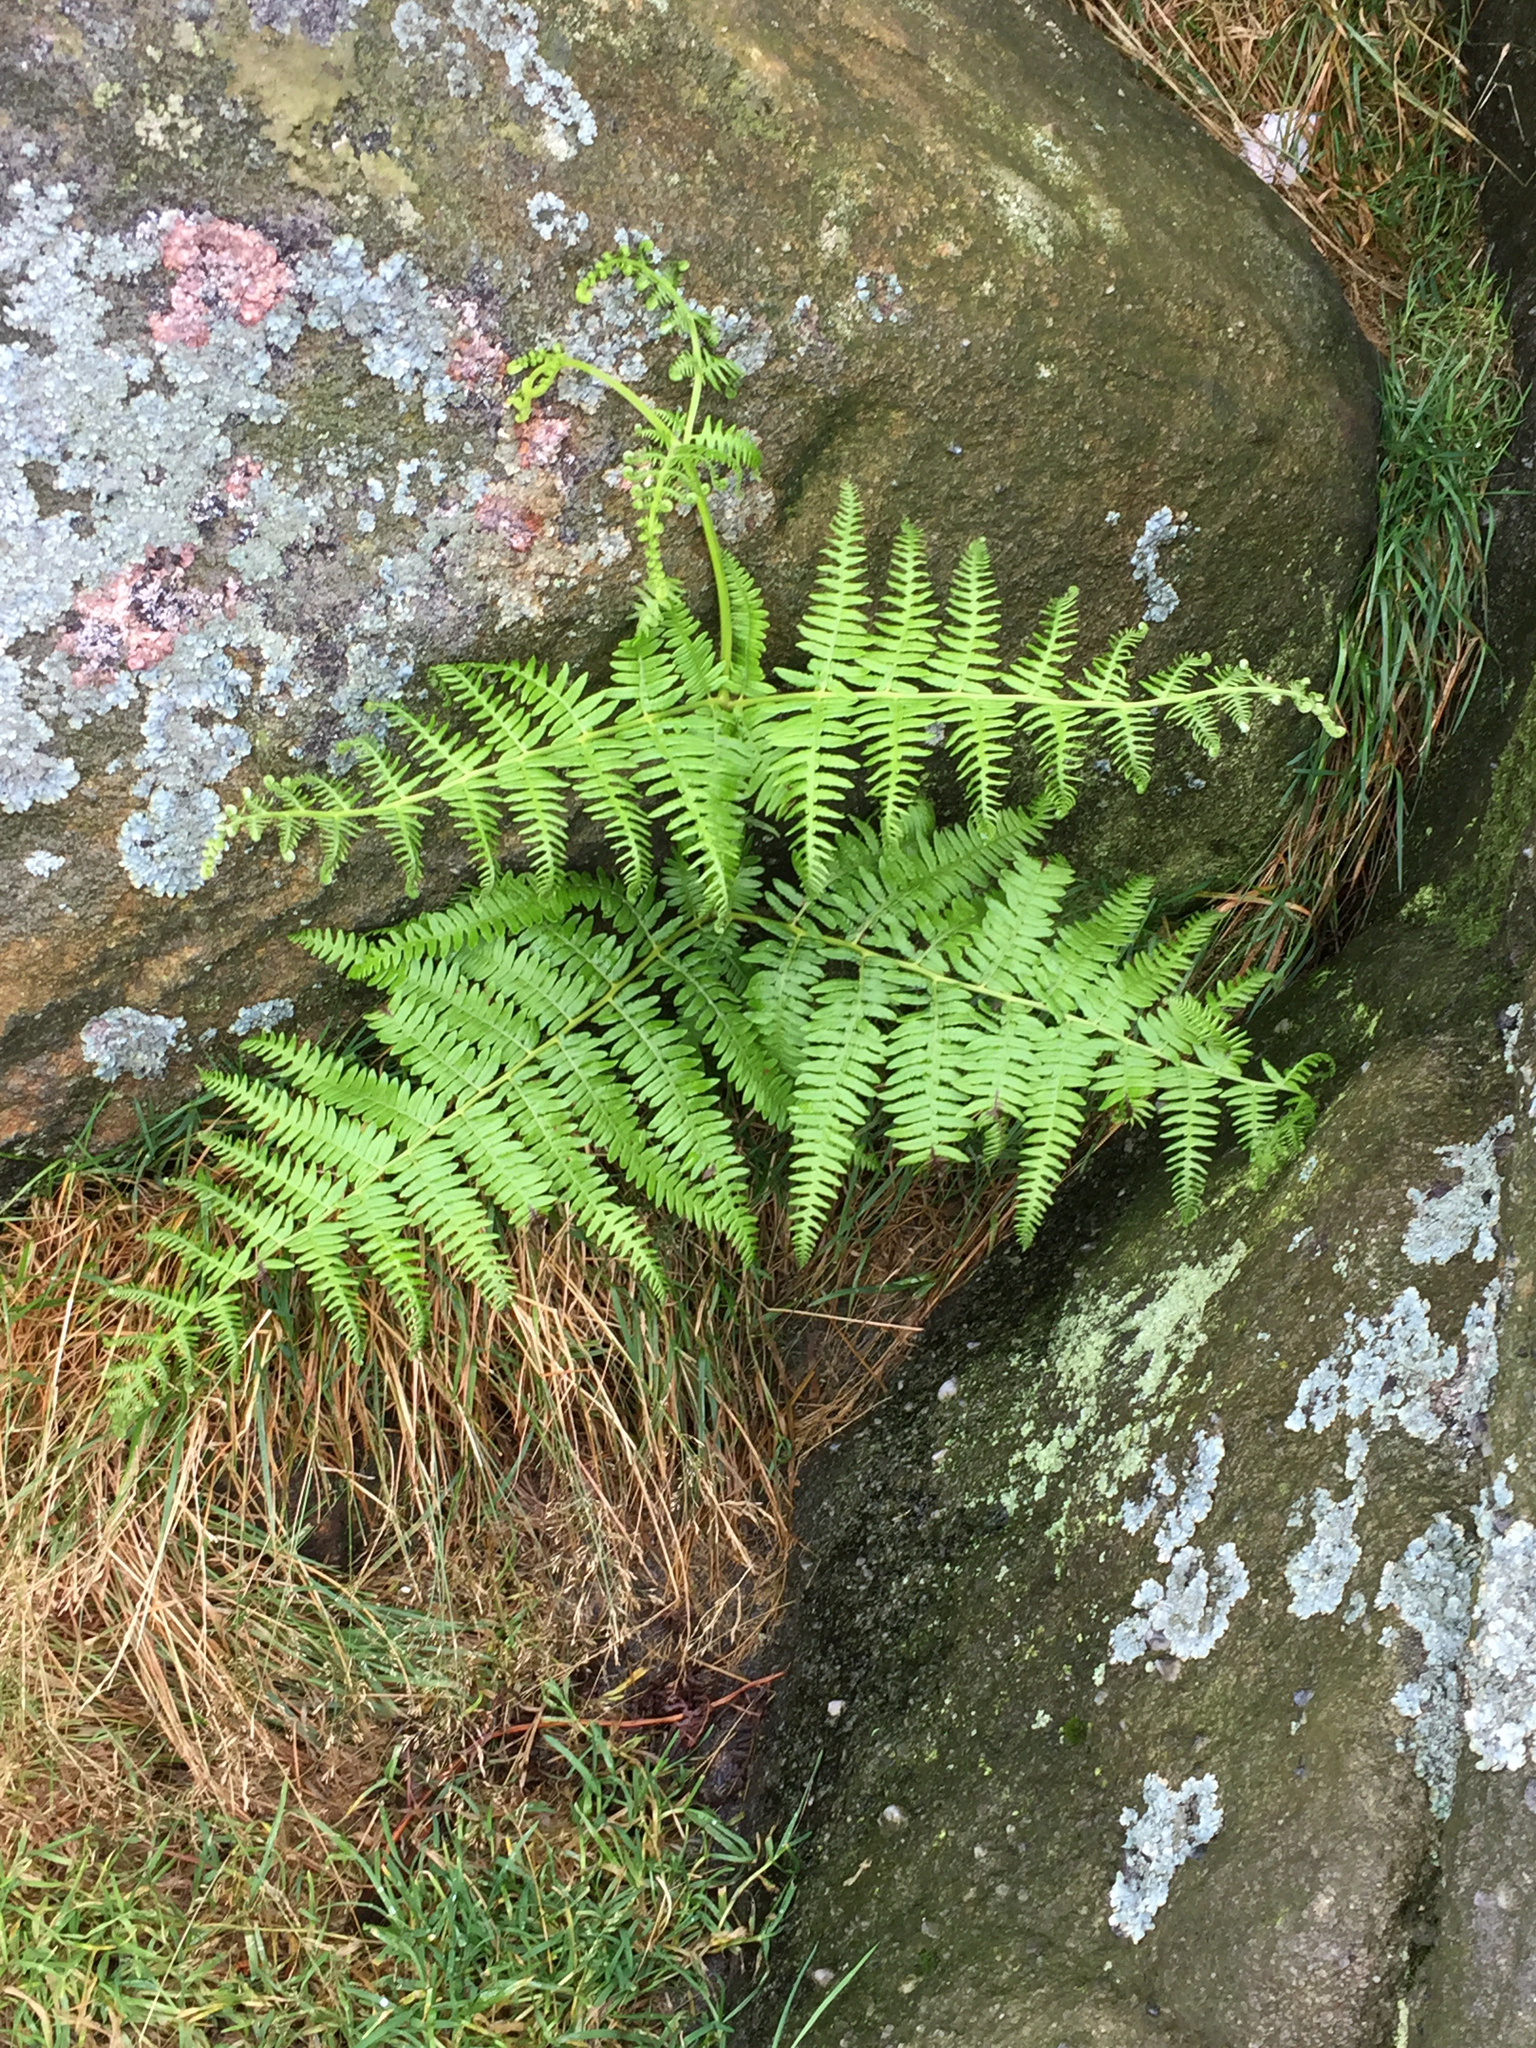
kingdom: Plantae
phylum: Tracheophyta
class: Polypodiopsida
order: Polypodiales
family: Dennstaedtiaceae
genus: Pteridium
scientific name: Pteridium aquilinum
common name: Bracken
